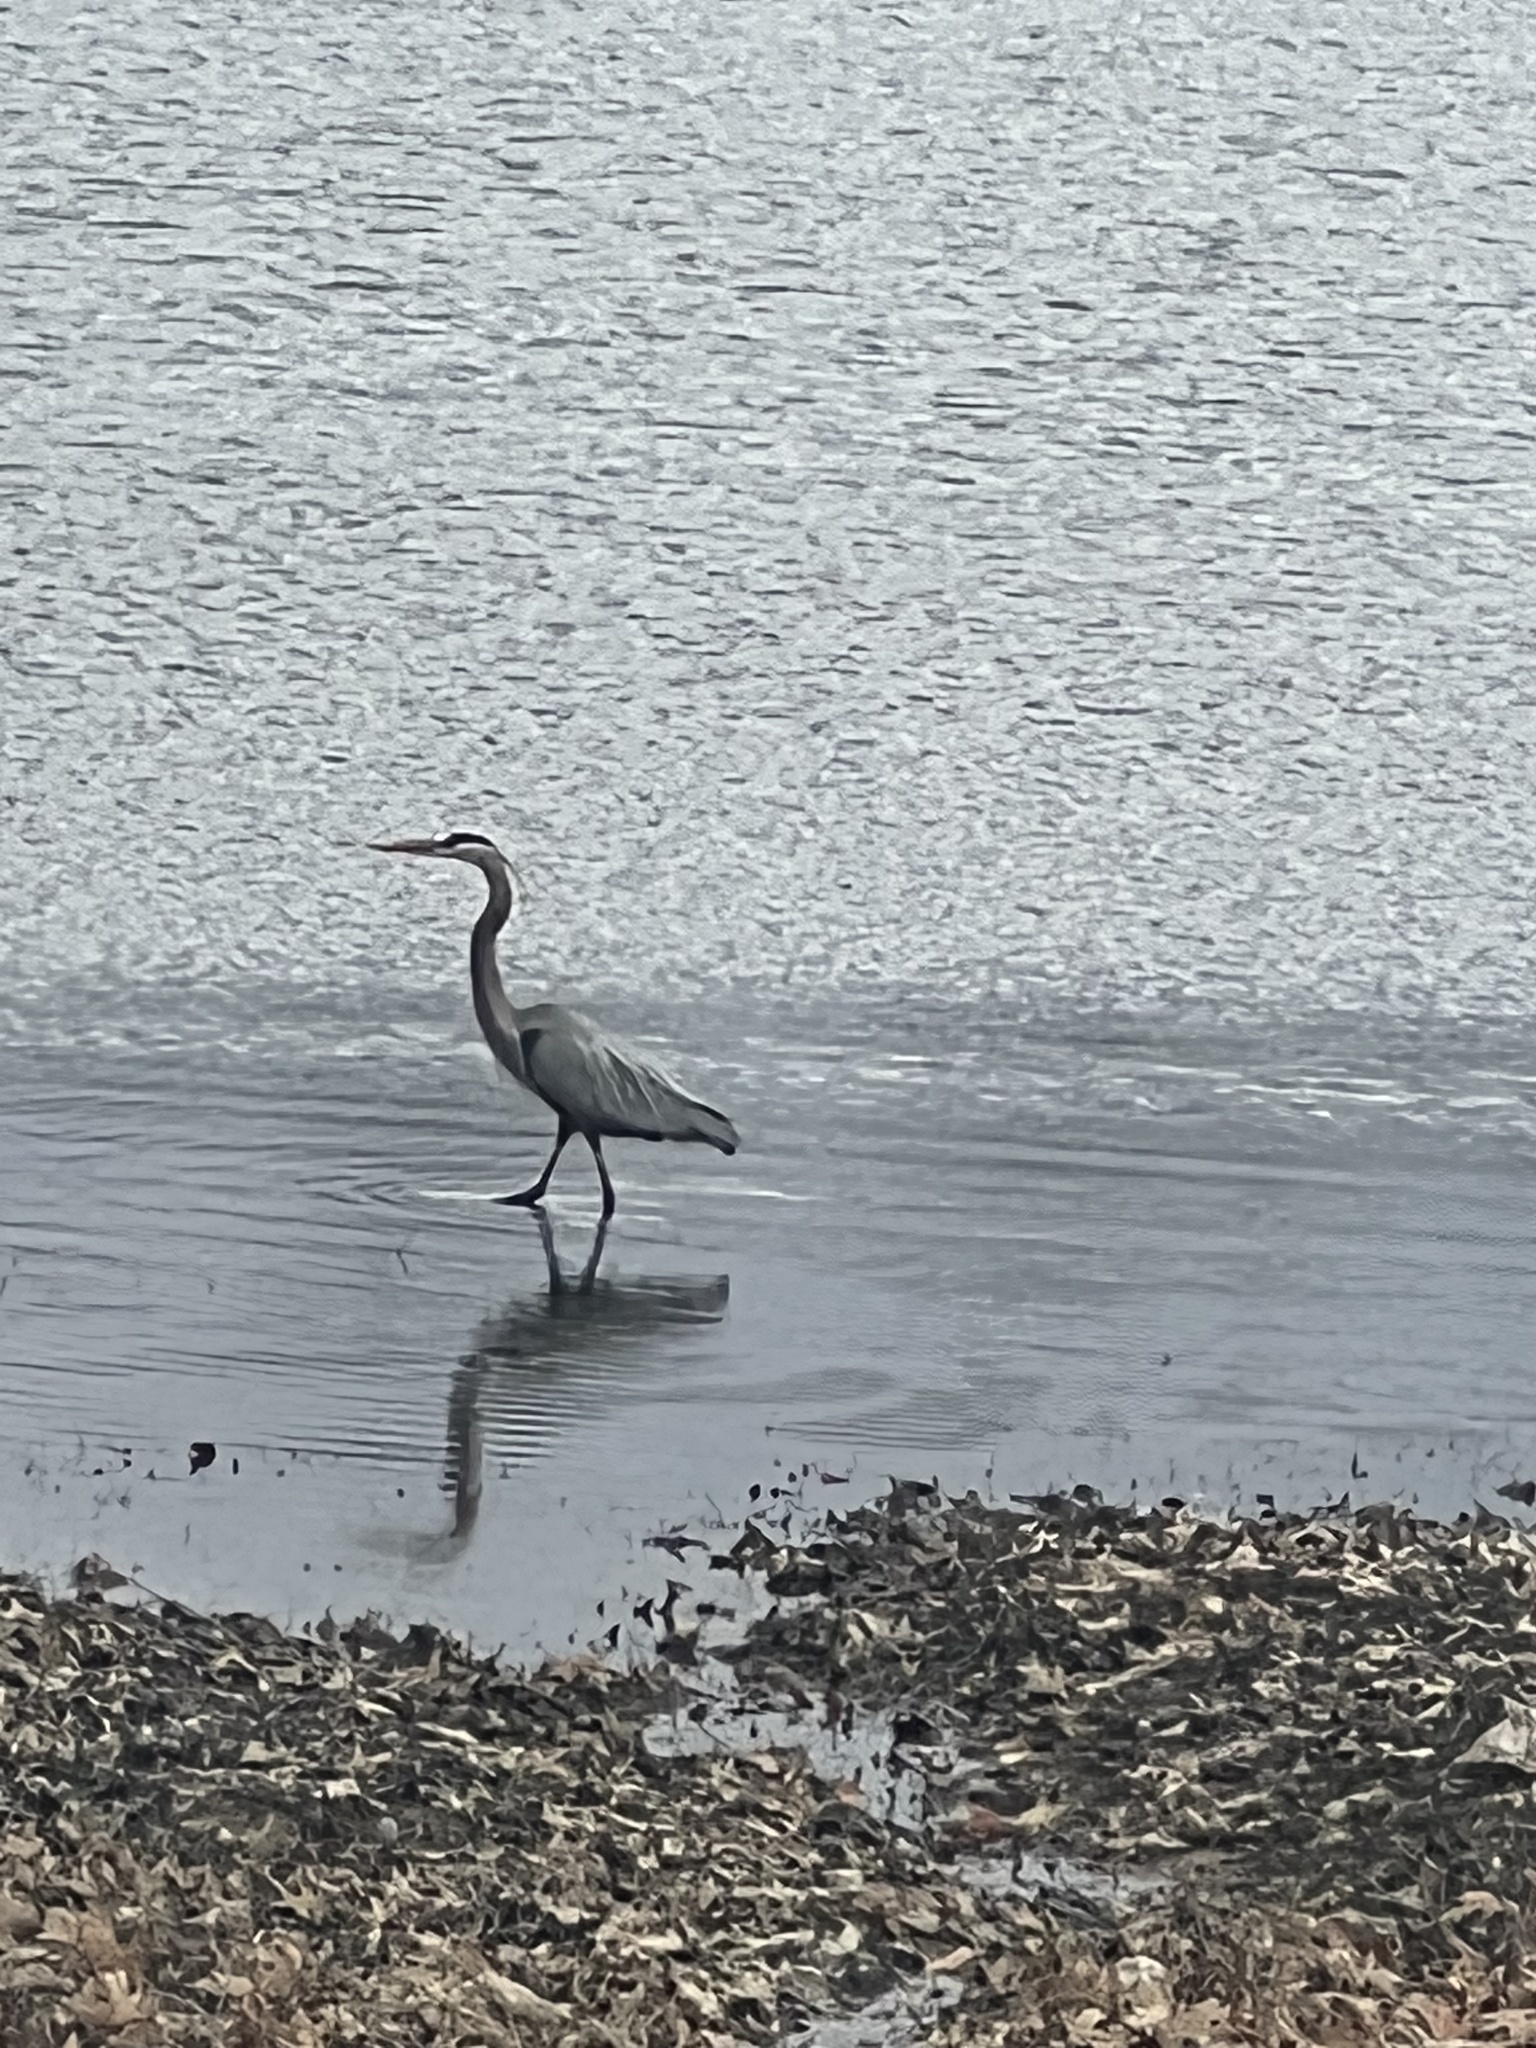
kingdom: Animalia
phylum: Chordata
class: Aves
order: Pelecaniformes
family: Ardeidae
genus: Ardea
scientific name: Ardea herodias
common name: Great blue heron
